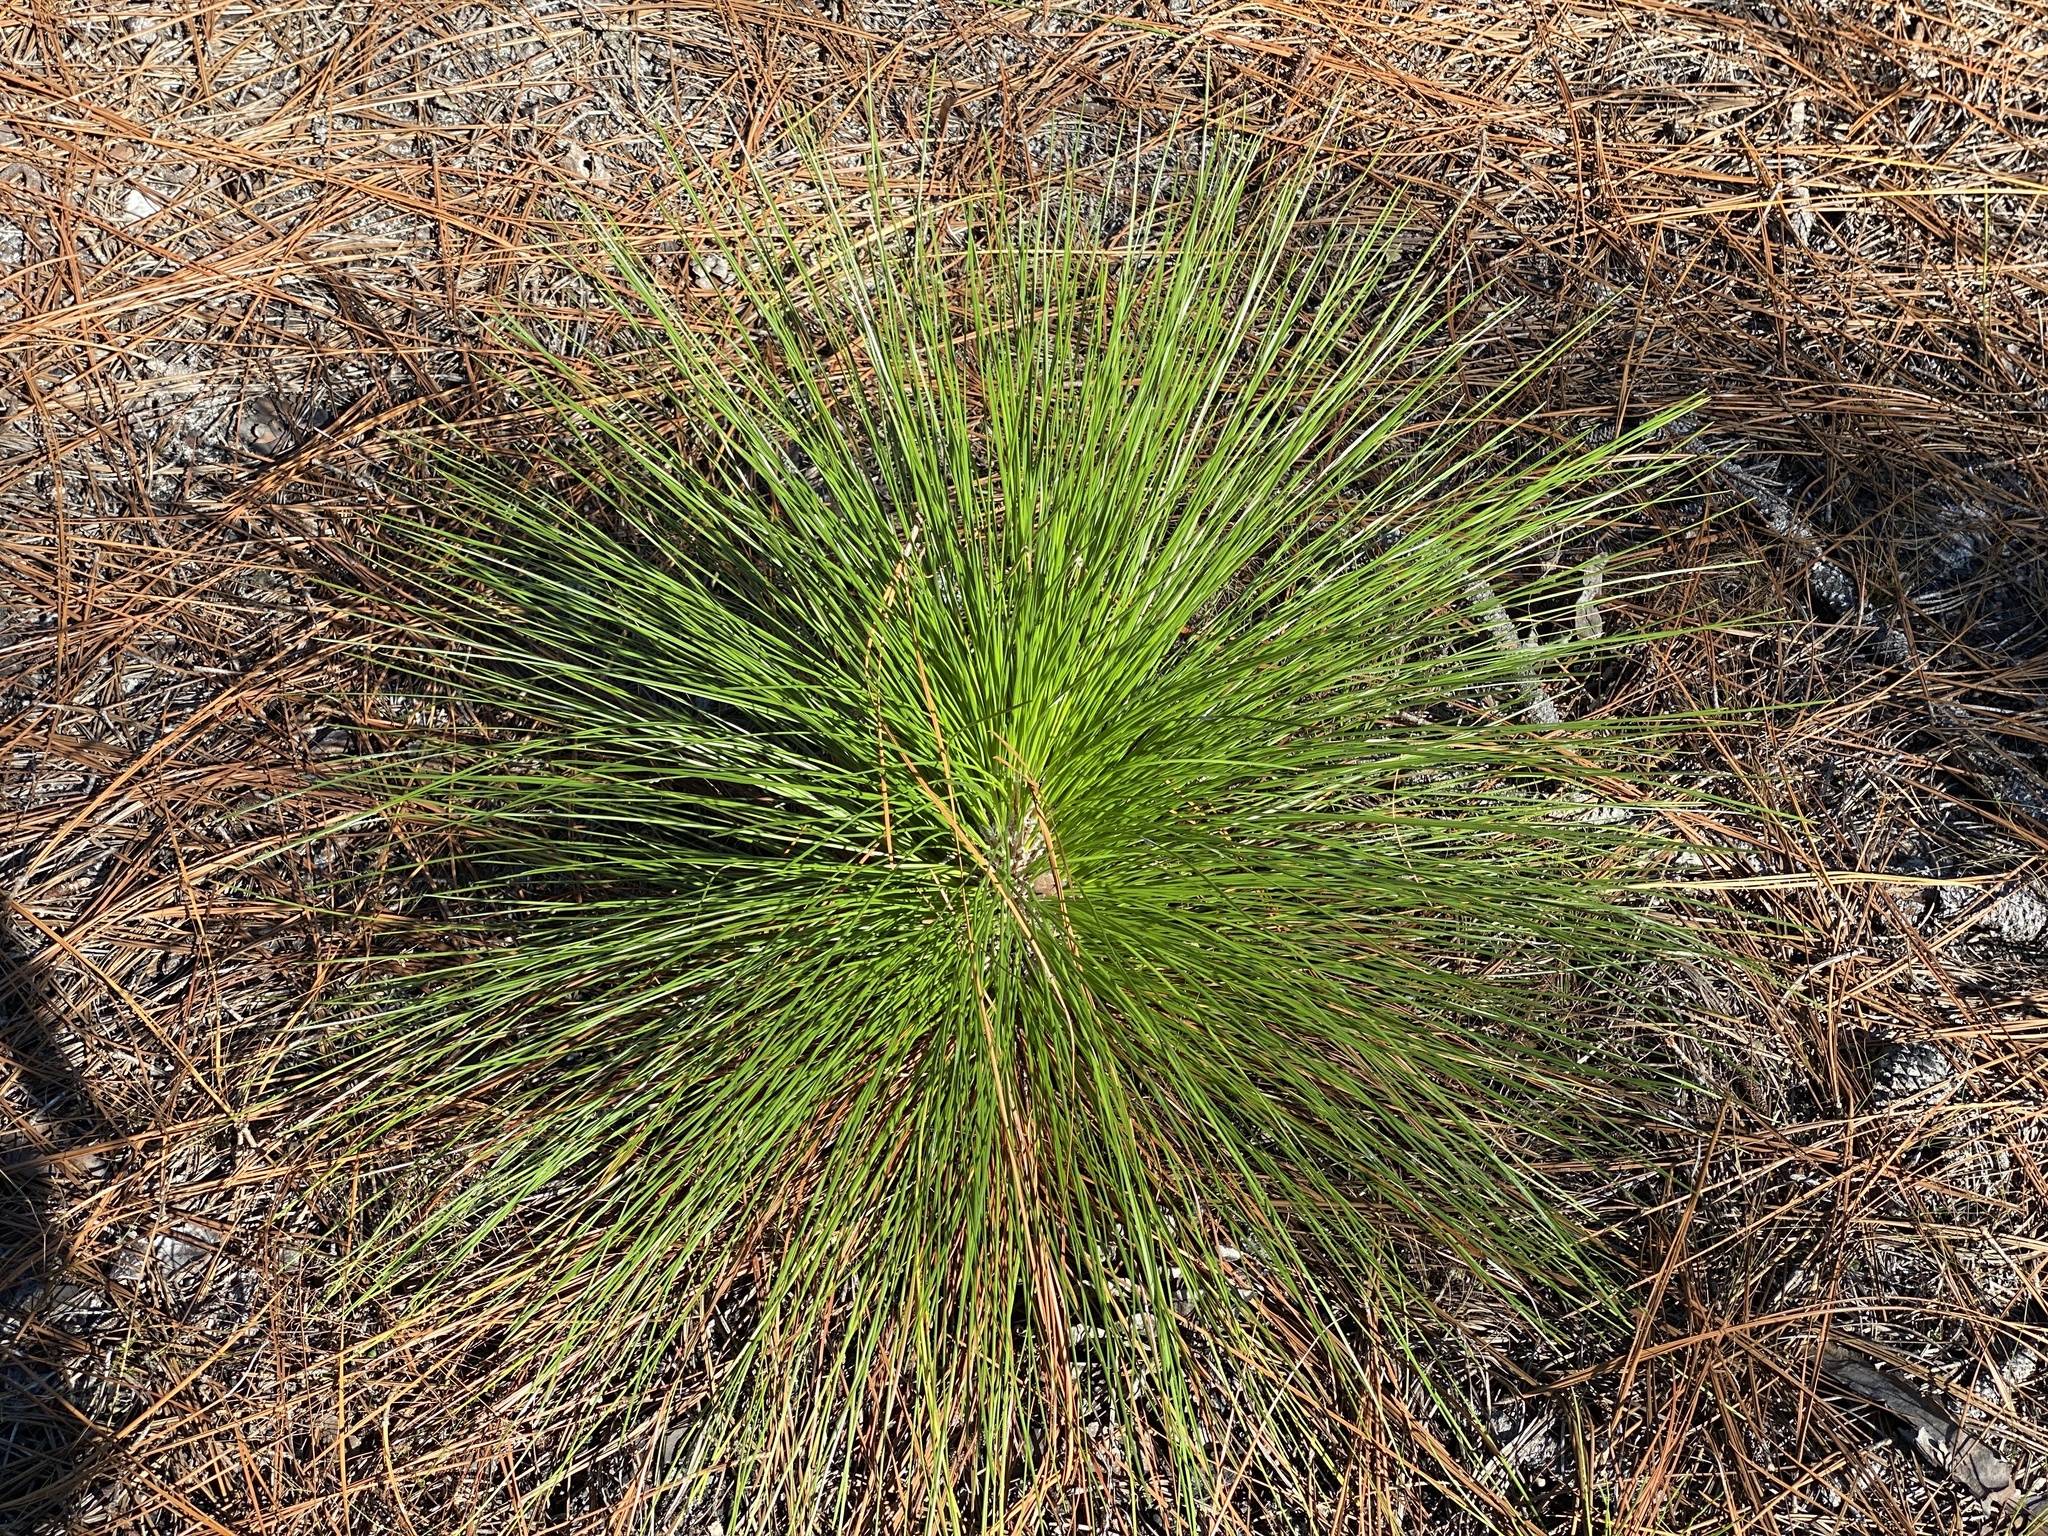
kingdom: Plantae
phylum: Tracheophyta
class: Pinopsida
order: Pinales
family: Pinaceae
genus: Pinus
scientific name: Pinus palustris
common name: Longleaf pine
